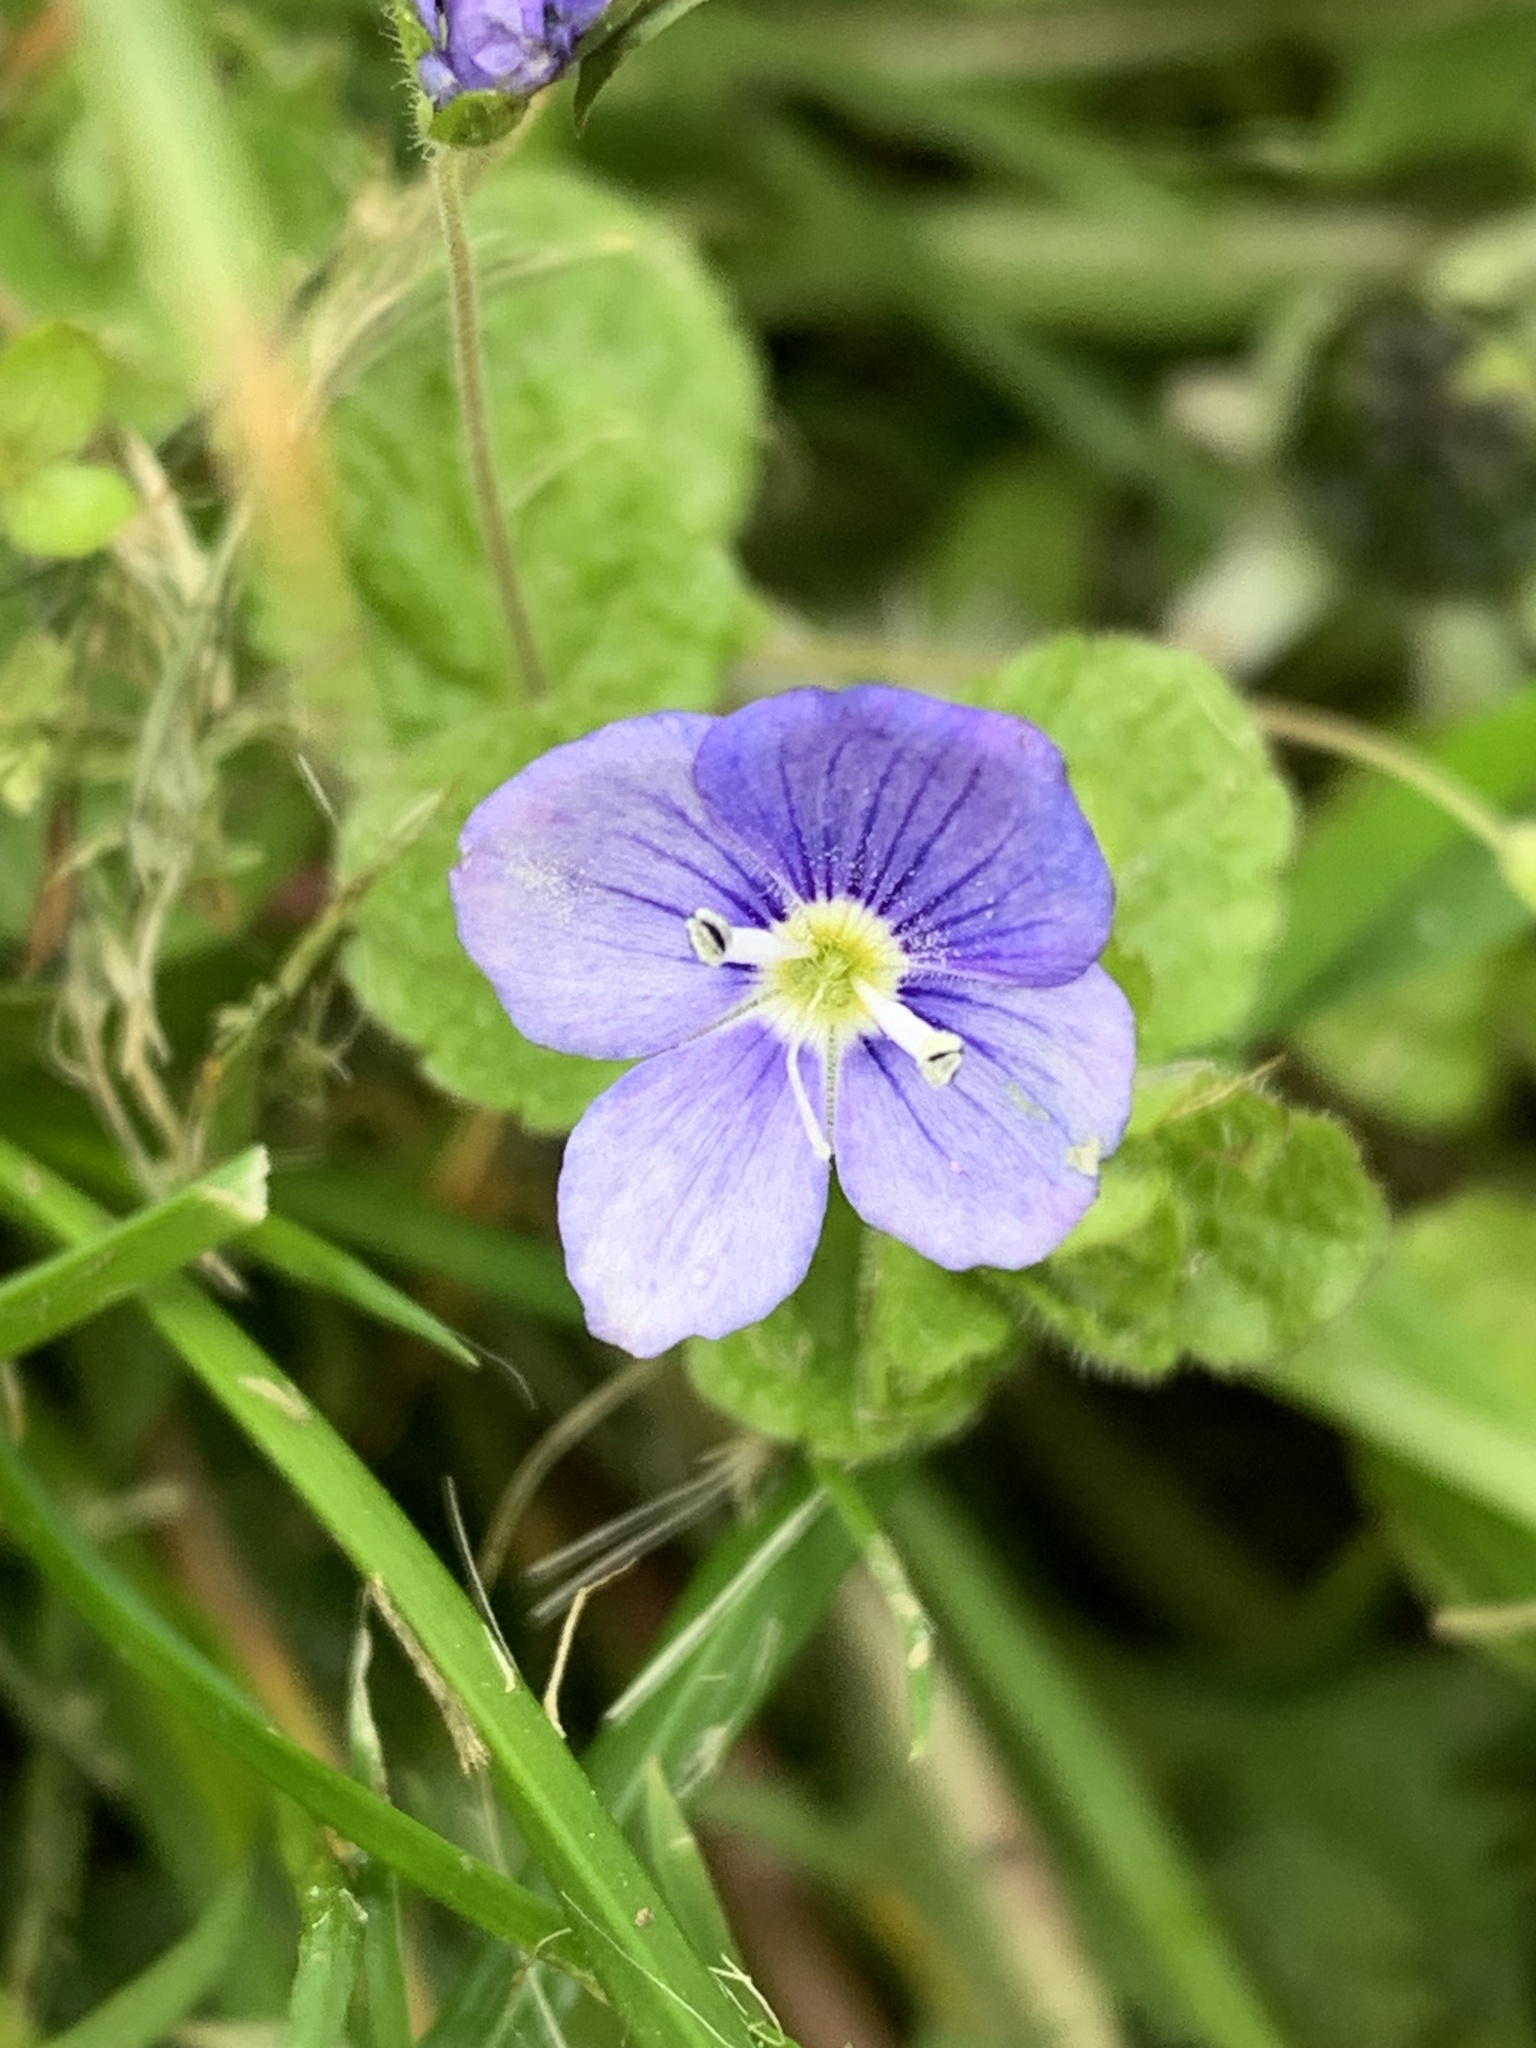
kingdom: Plantae
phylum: Tracheophyta
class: Magnoliopsida
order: Lamiales
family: Plantaginaceae
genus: Veronica
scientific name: Veronica filiformis
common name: Slender speedwell
